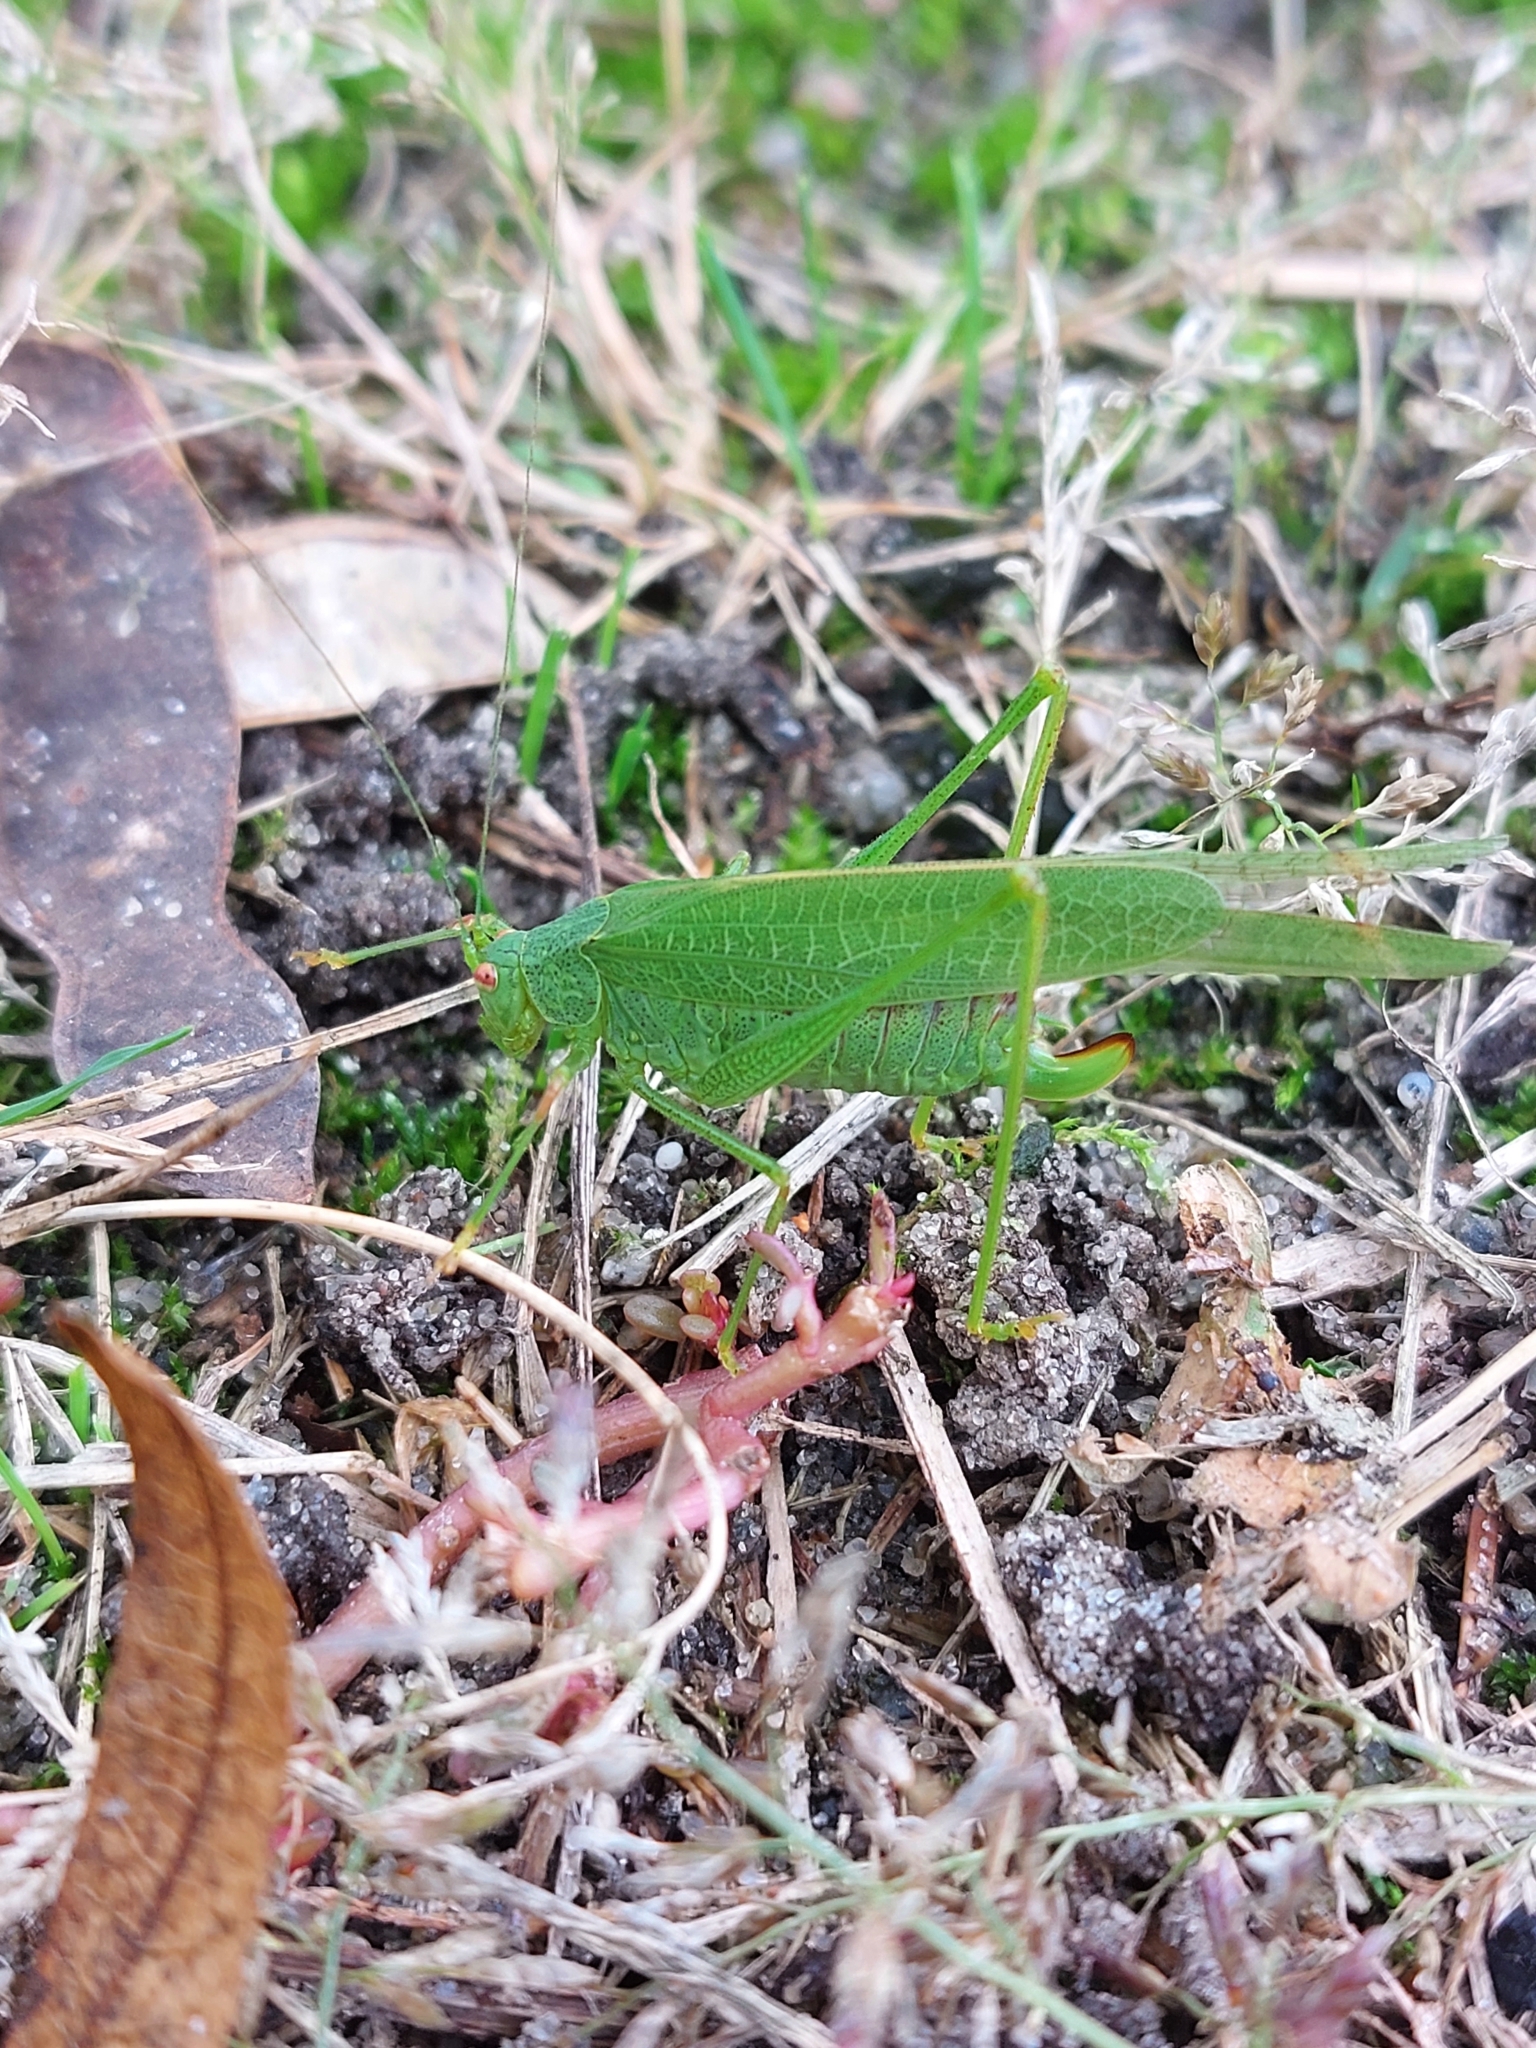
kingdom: Animalia
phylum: Arthropoda
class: Insecta
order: Orthoptera
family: Tettigoniidae
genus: Phaneroptera
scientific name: Phaneroptera nana
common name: Southern sickle bush-cricket
